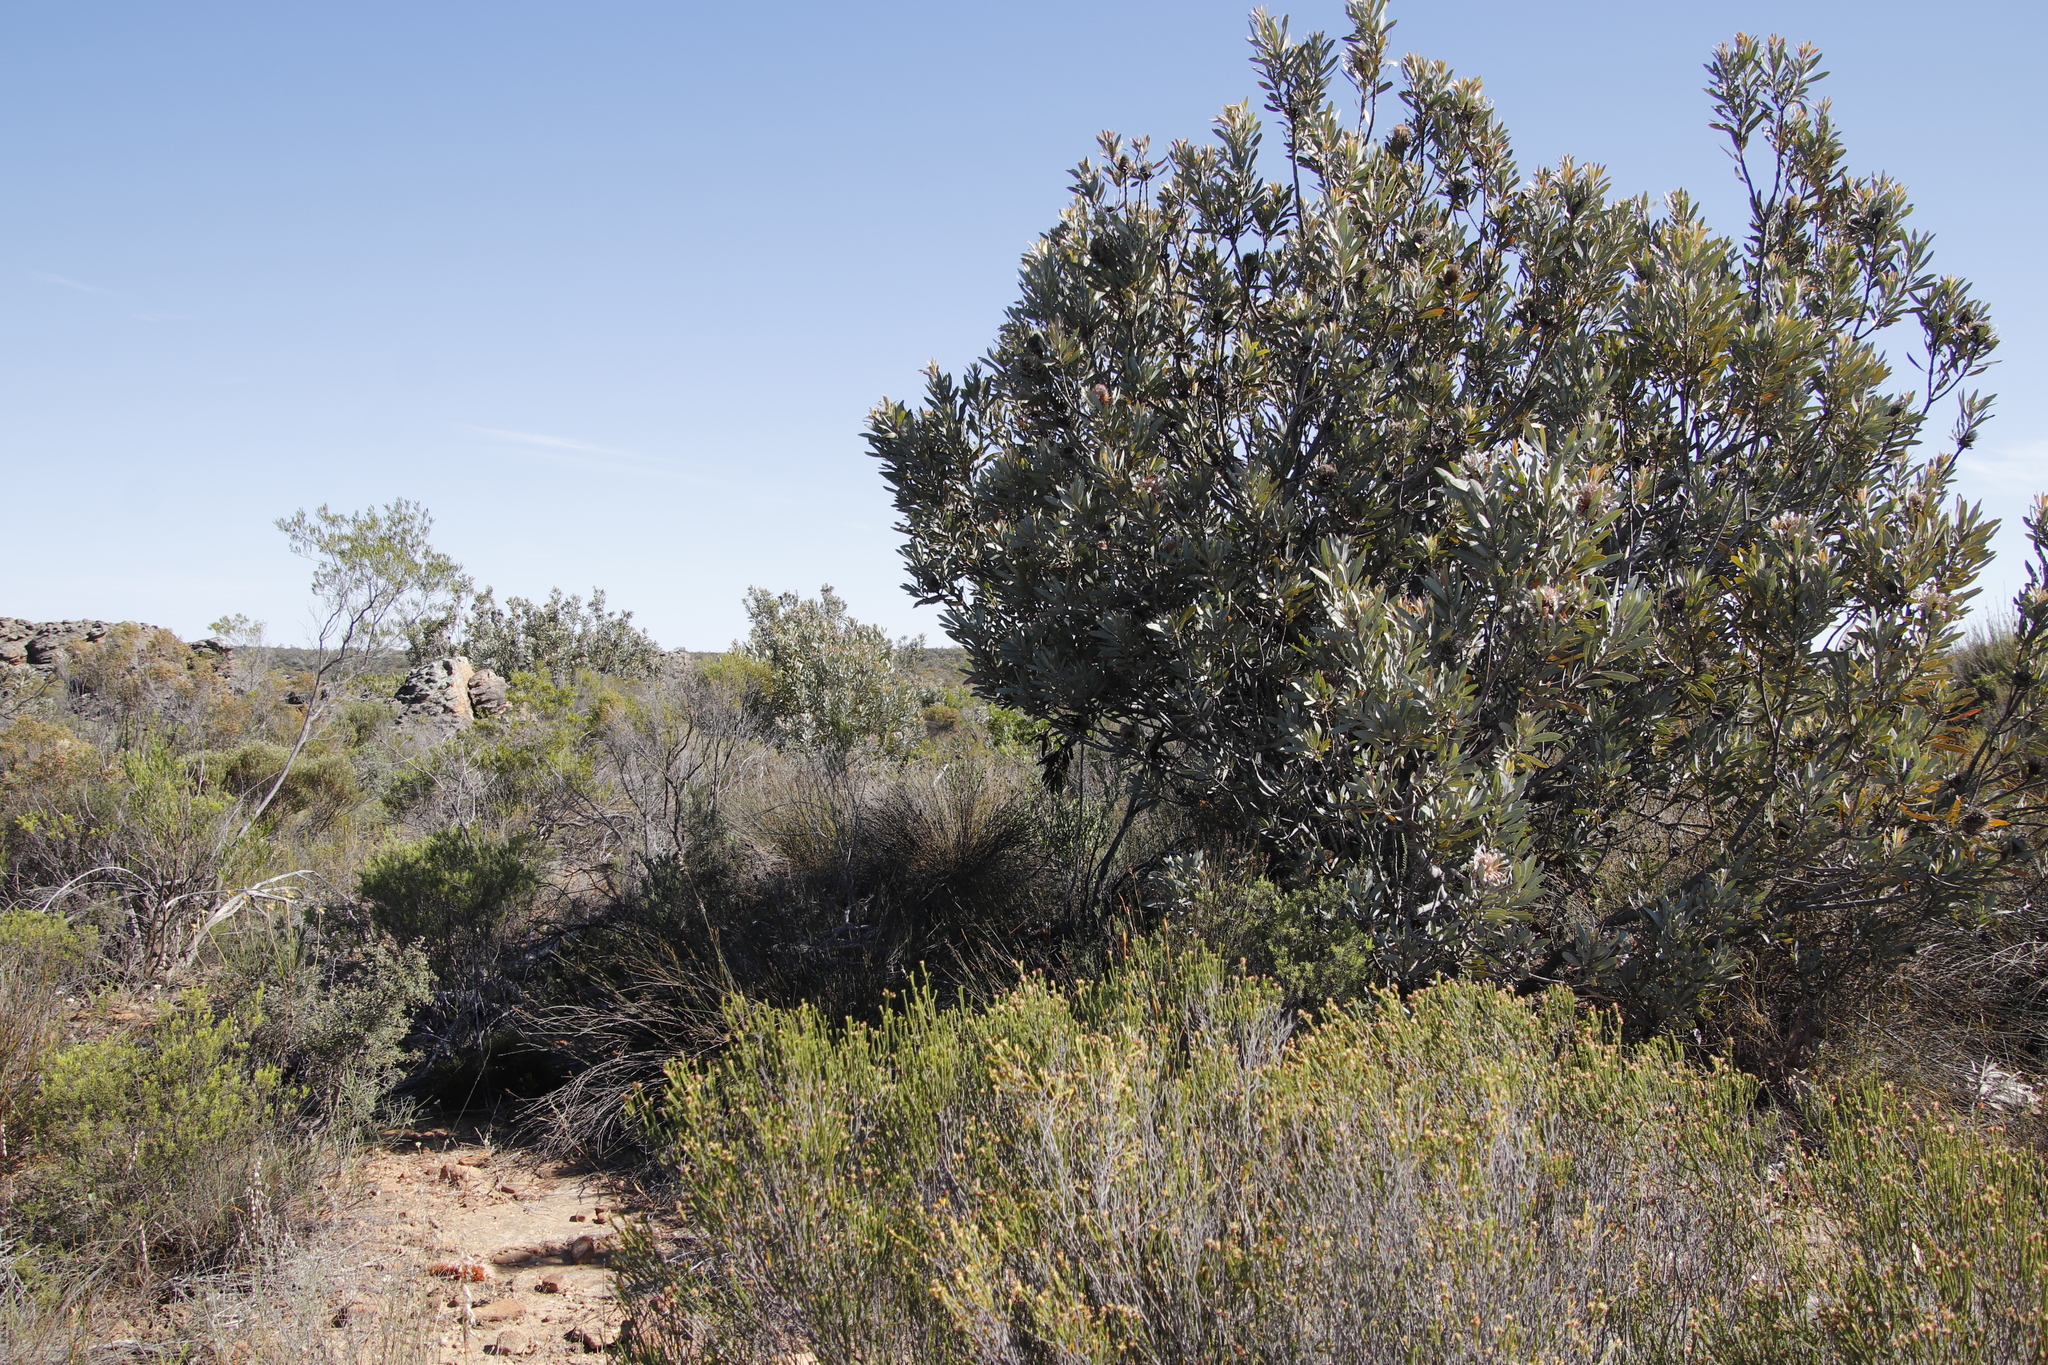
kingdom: Plantae
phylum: Tracheophyta
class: Magnoliopsida
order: Proteales
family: Proteaceae
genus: Protea
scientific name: Protea laurifolia
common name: Grey-leaf sugarbsh
